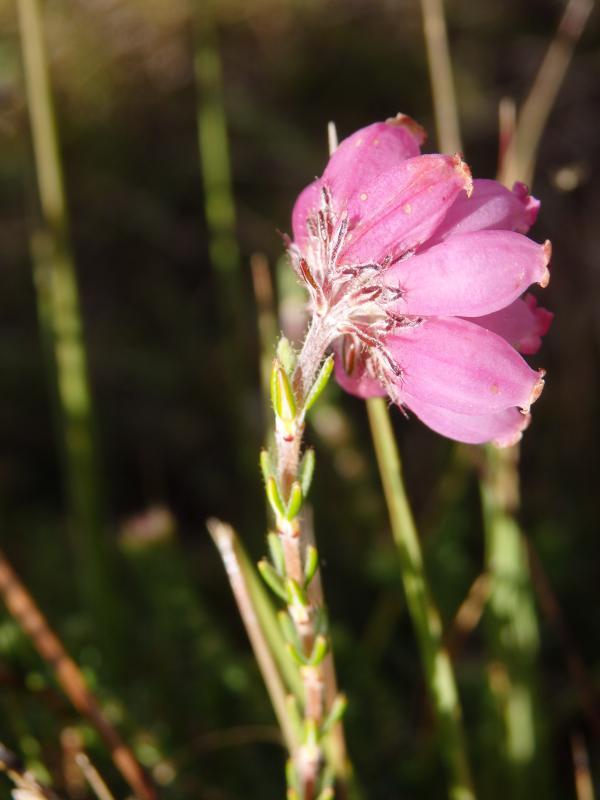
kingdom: Plantae
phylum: Tracheophyta
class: Magnoliopsida
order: Ericales
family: Ericaceae
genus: Erica
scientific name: Erica tetralix
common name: Cross-leaved heath
